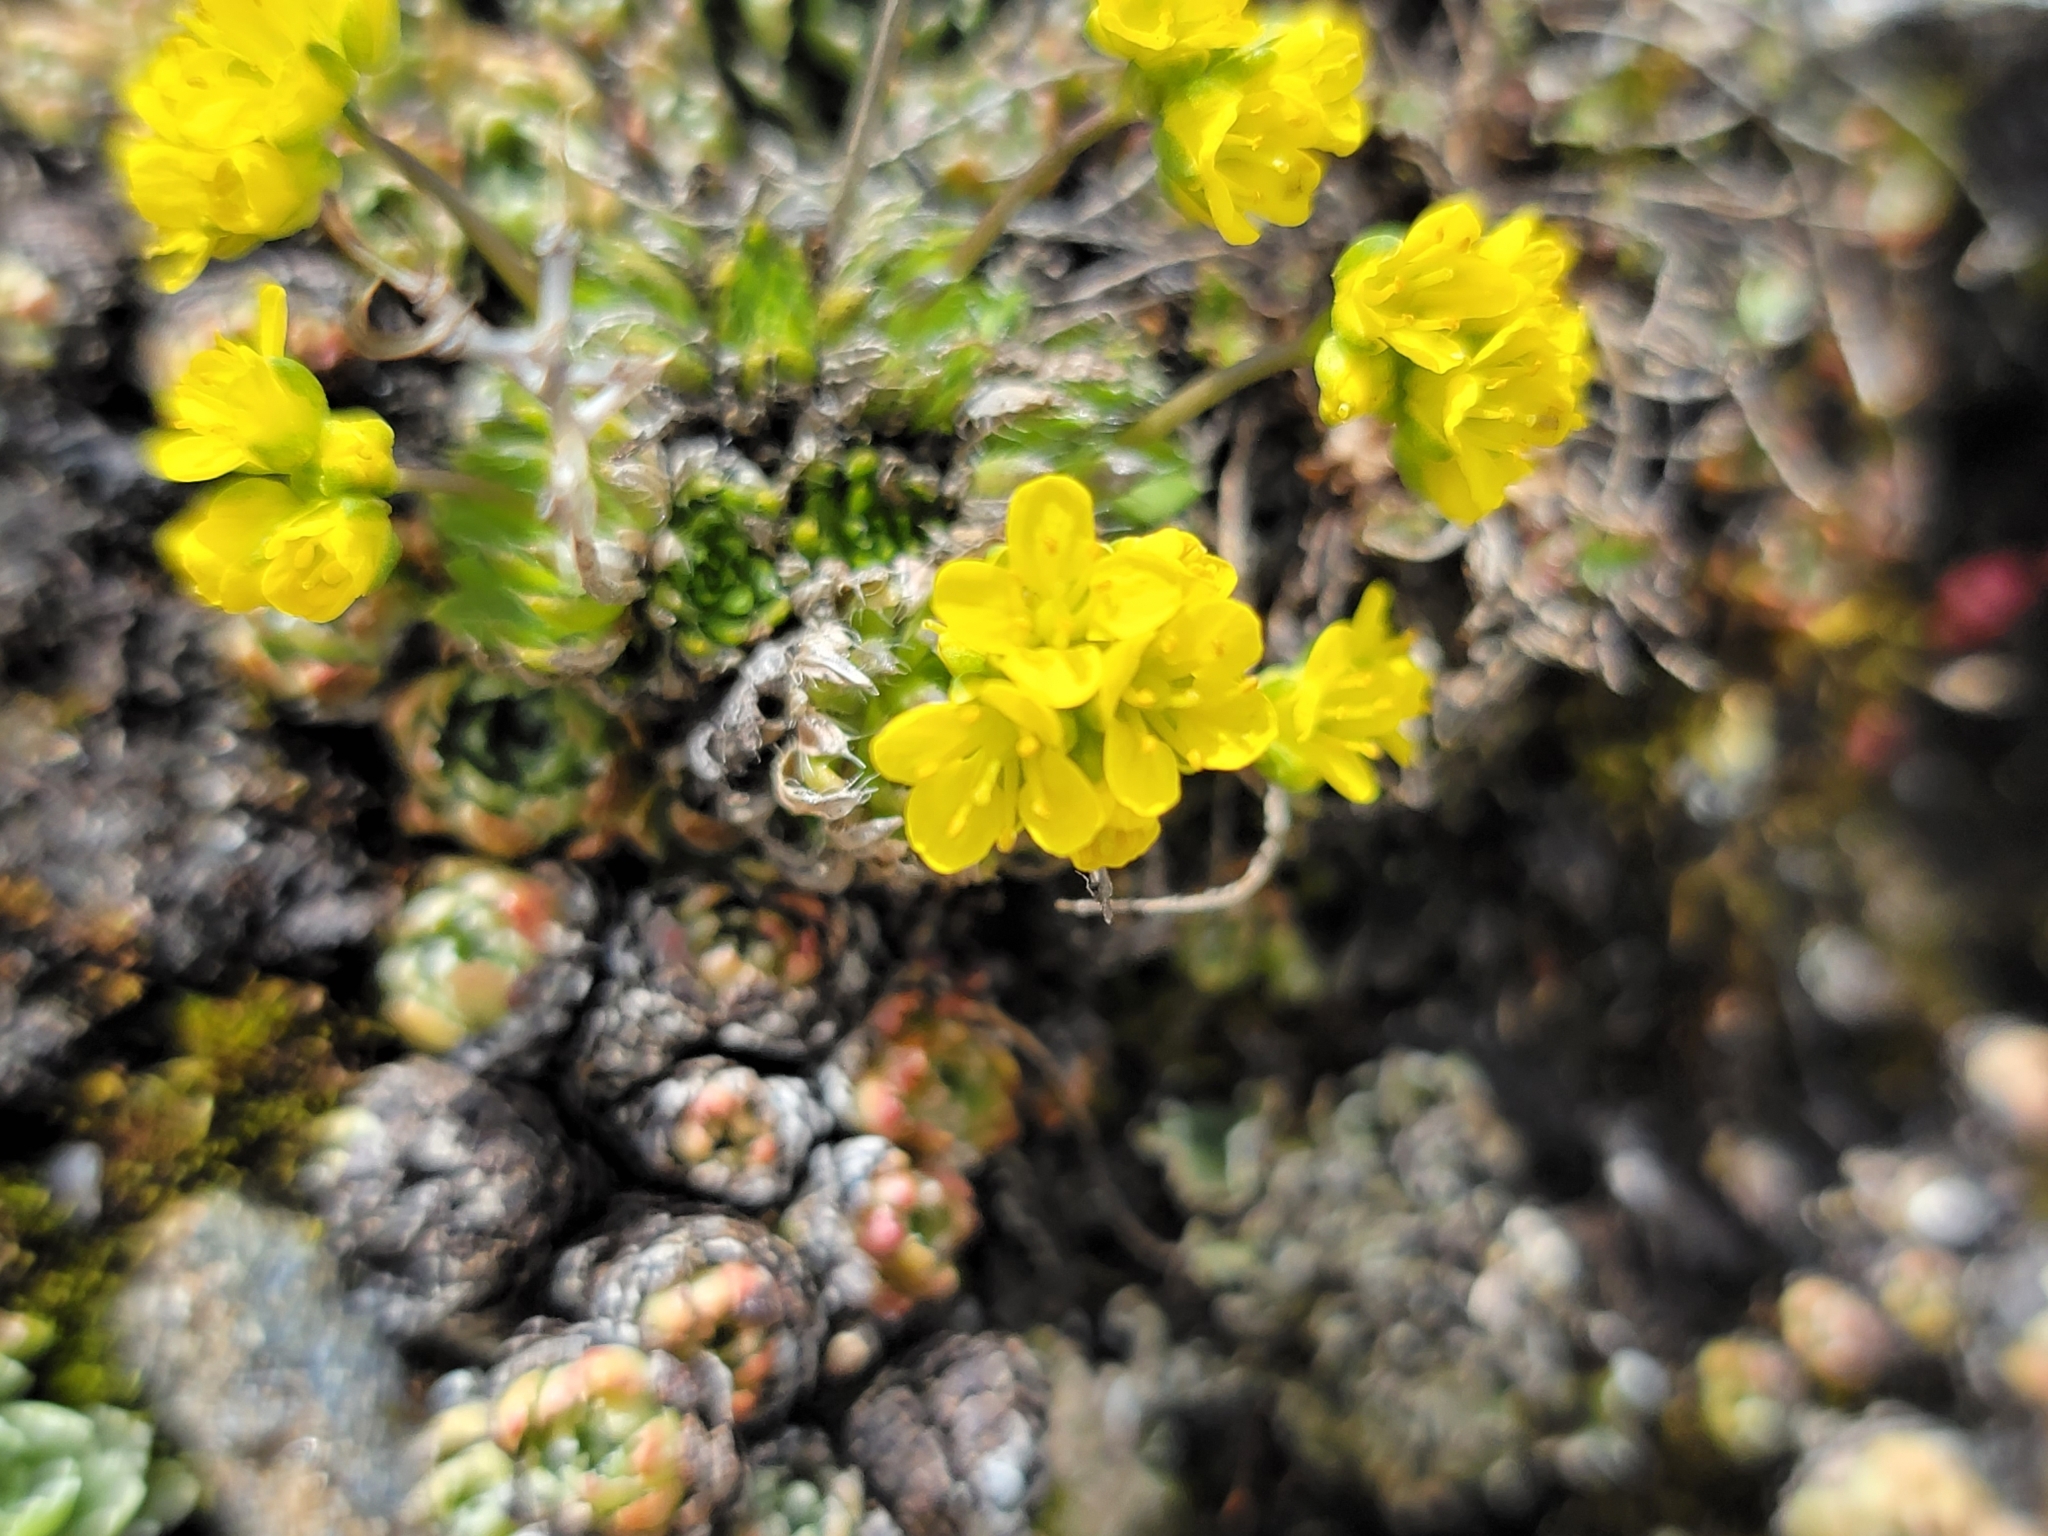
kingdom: Plantae
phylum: Tracheophyta
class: Magnoliopsida
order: Brassicales
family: Brassicaceae
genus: Draba
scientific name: Draba aizoides
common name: Yellow whitlowgrass
